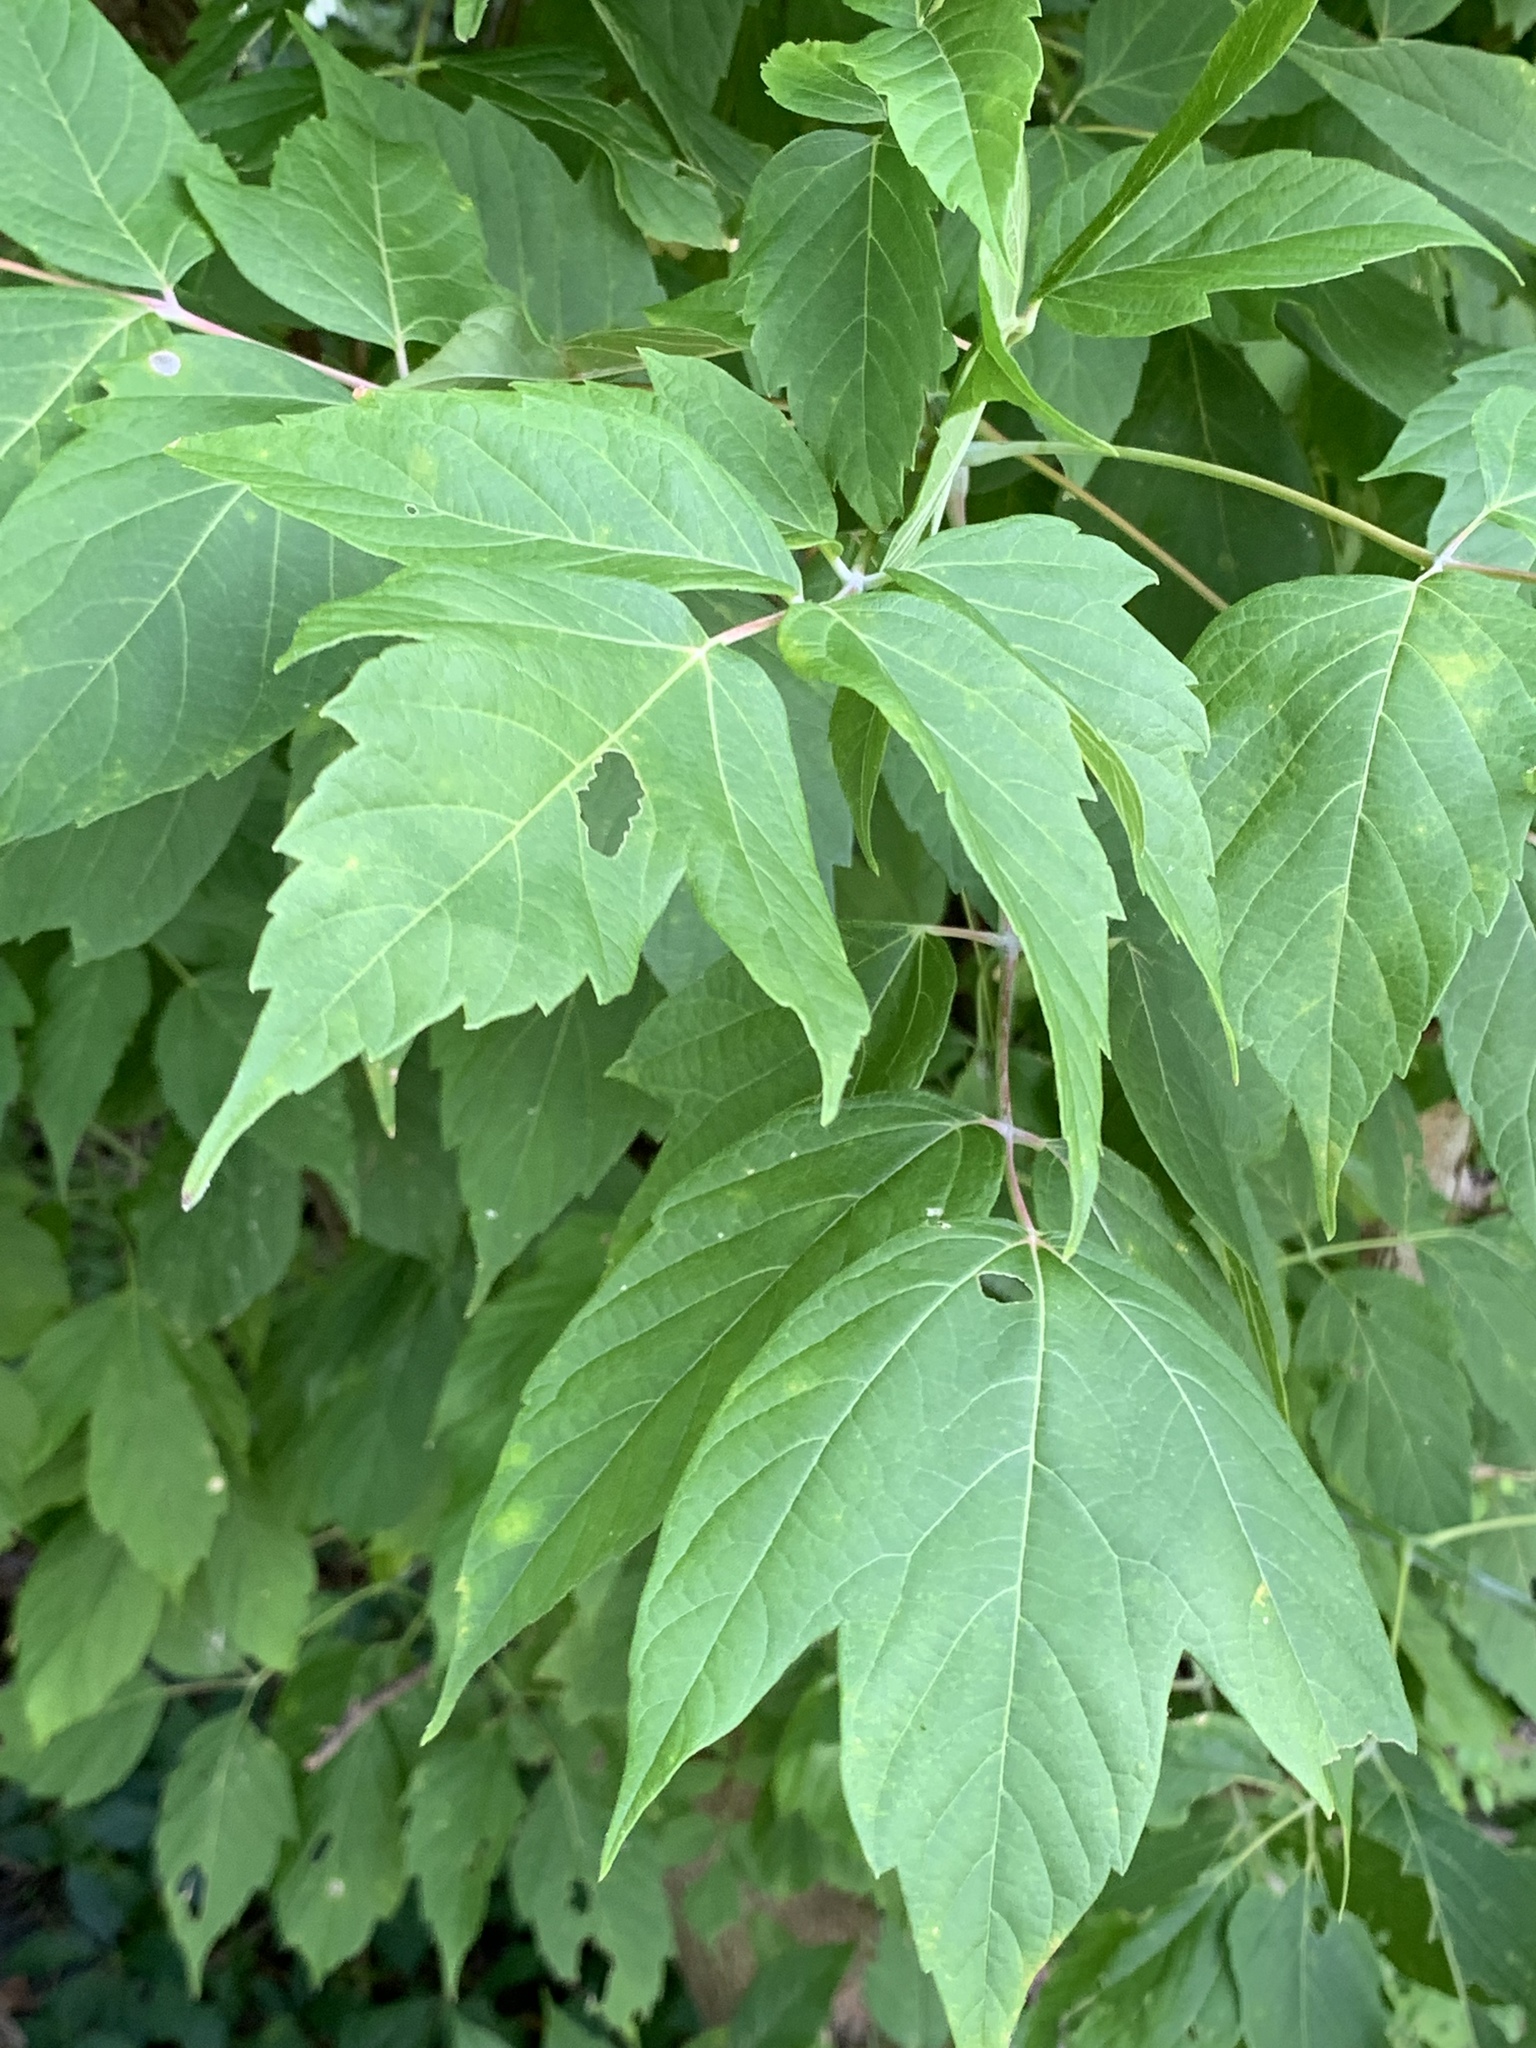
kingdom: Plantae
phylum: Tracheophyta
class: Magnoliopsida
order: Sapindales
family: Sapindaceae
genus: Acer
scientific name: Acer negundo
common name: Ashleaf maple
